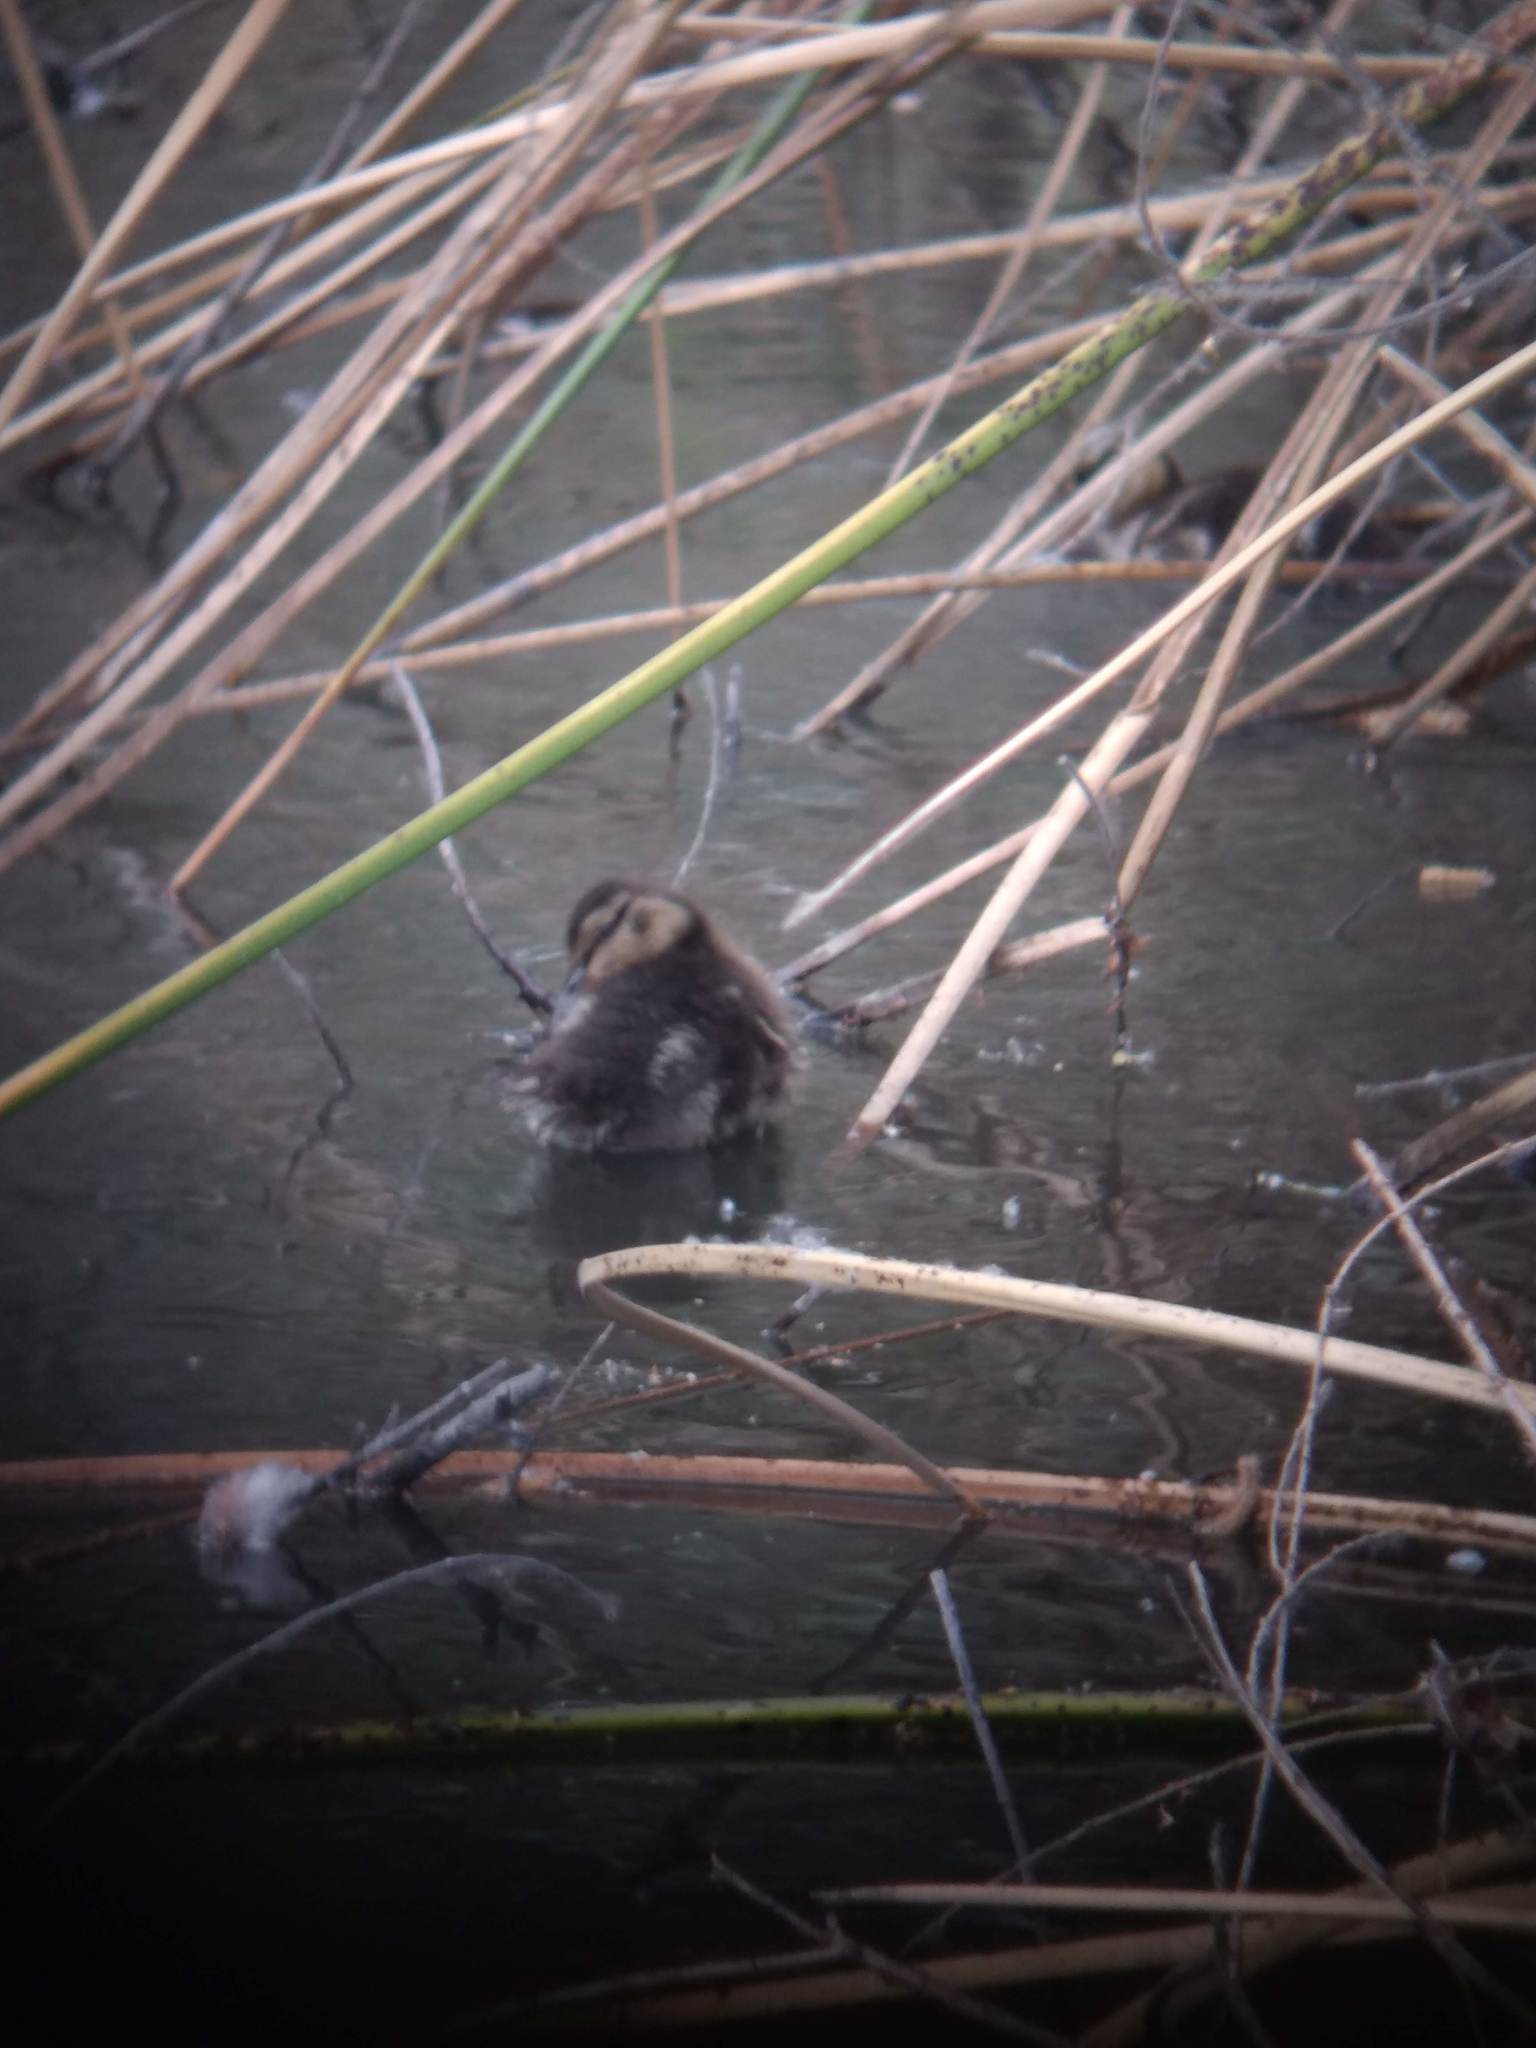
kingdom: Animalia
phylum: Chordata
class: Aves
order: Anseriformes
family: Anatidae
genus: Anas
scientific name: Anas platyrhynchos
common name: Mallard
